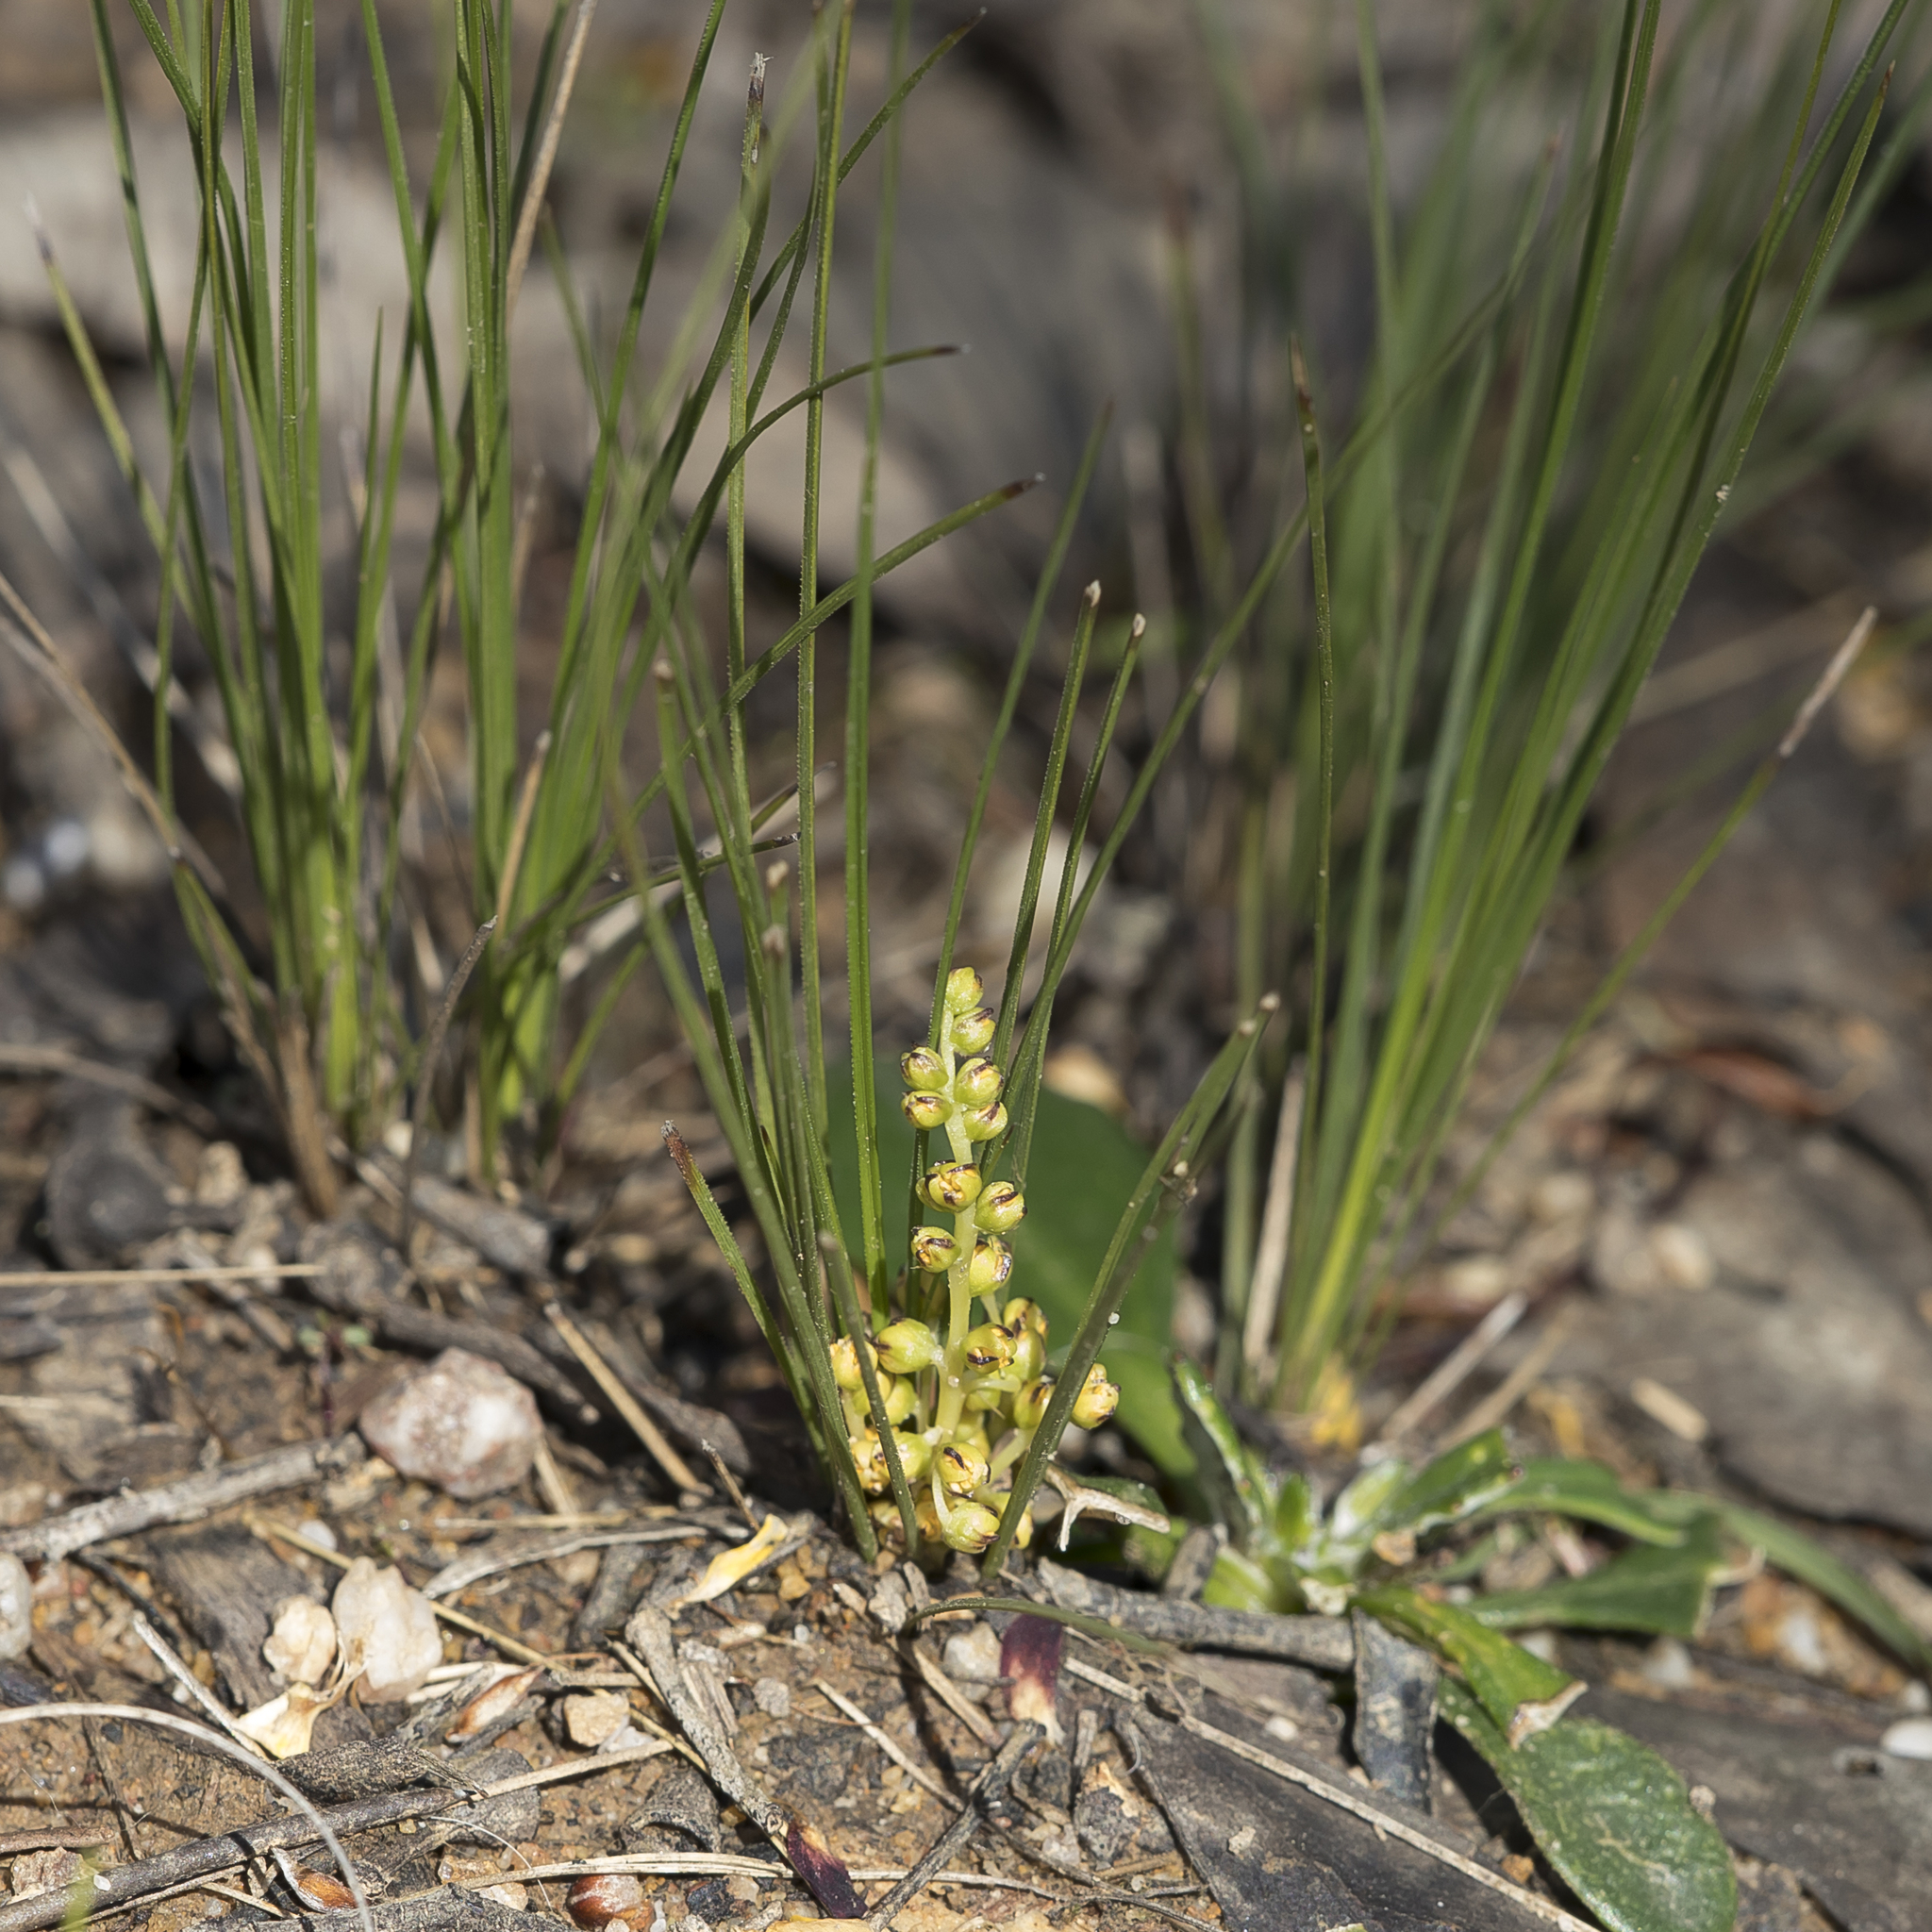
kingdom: Plantae
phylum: Tracheophyta
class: Liliopsida
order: Asparagales
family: Asparagaceae
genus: Lomandra
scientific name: Lomandra fibrata
